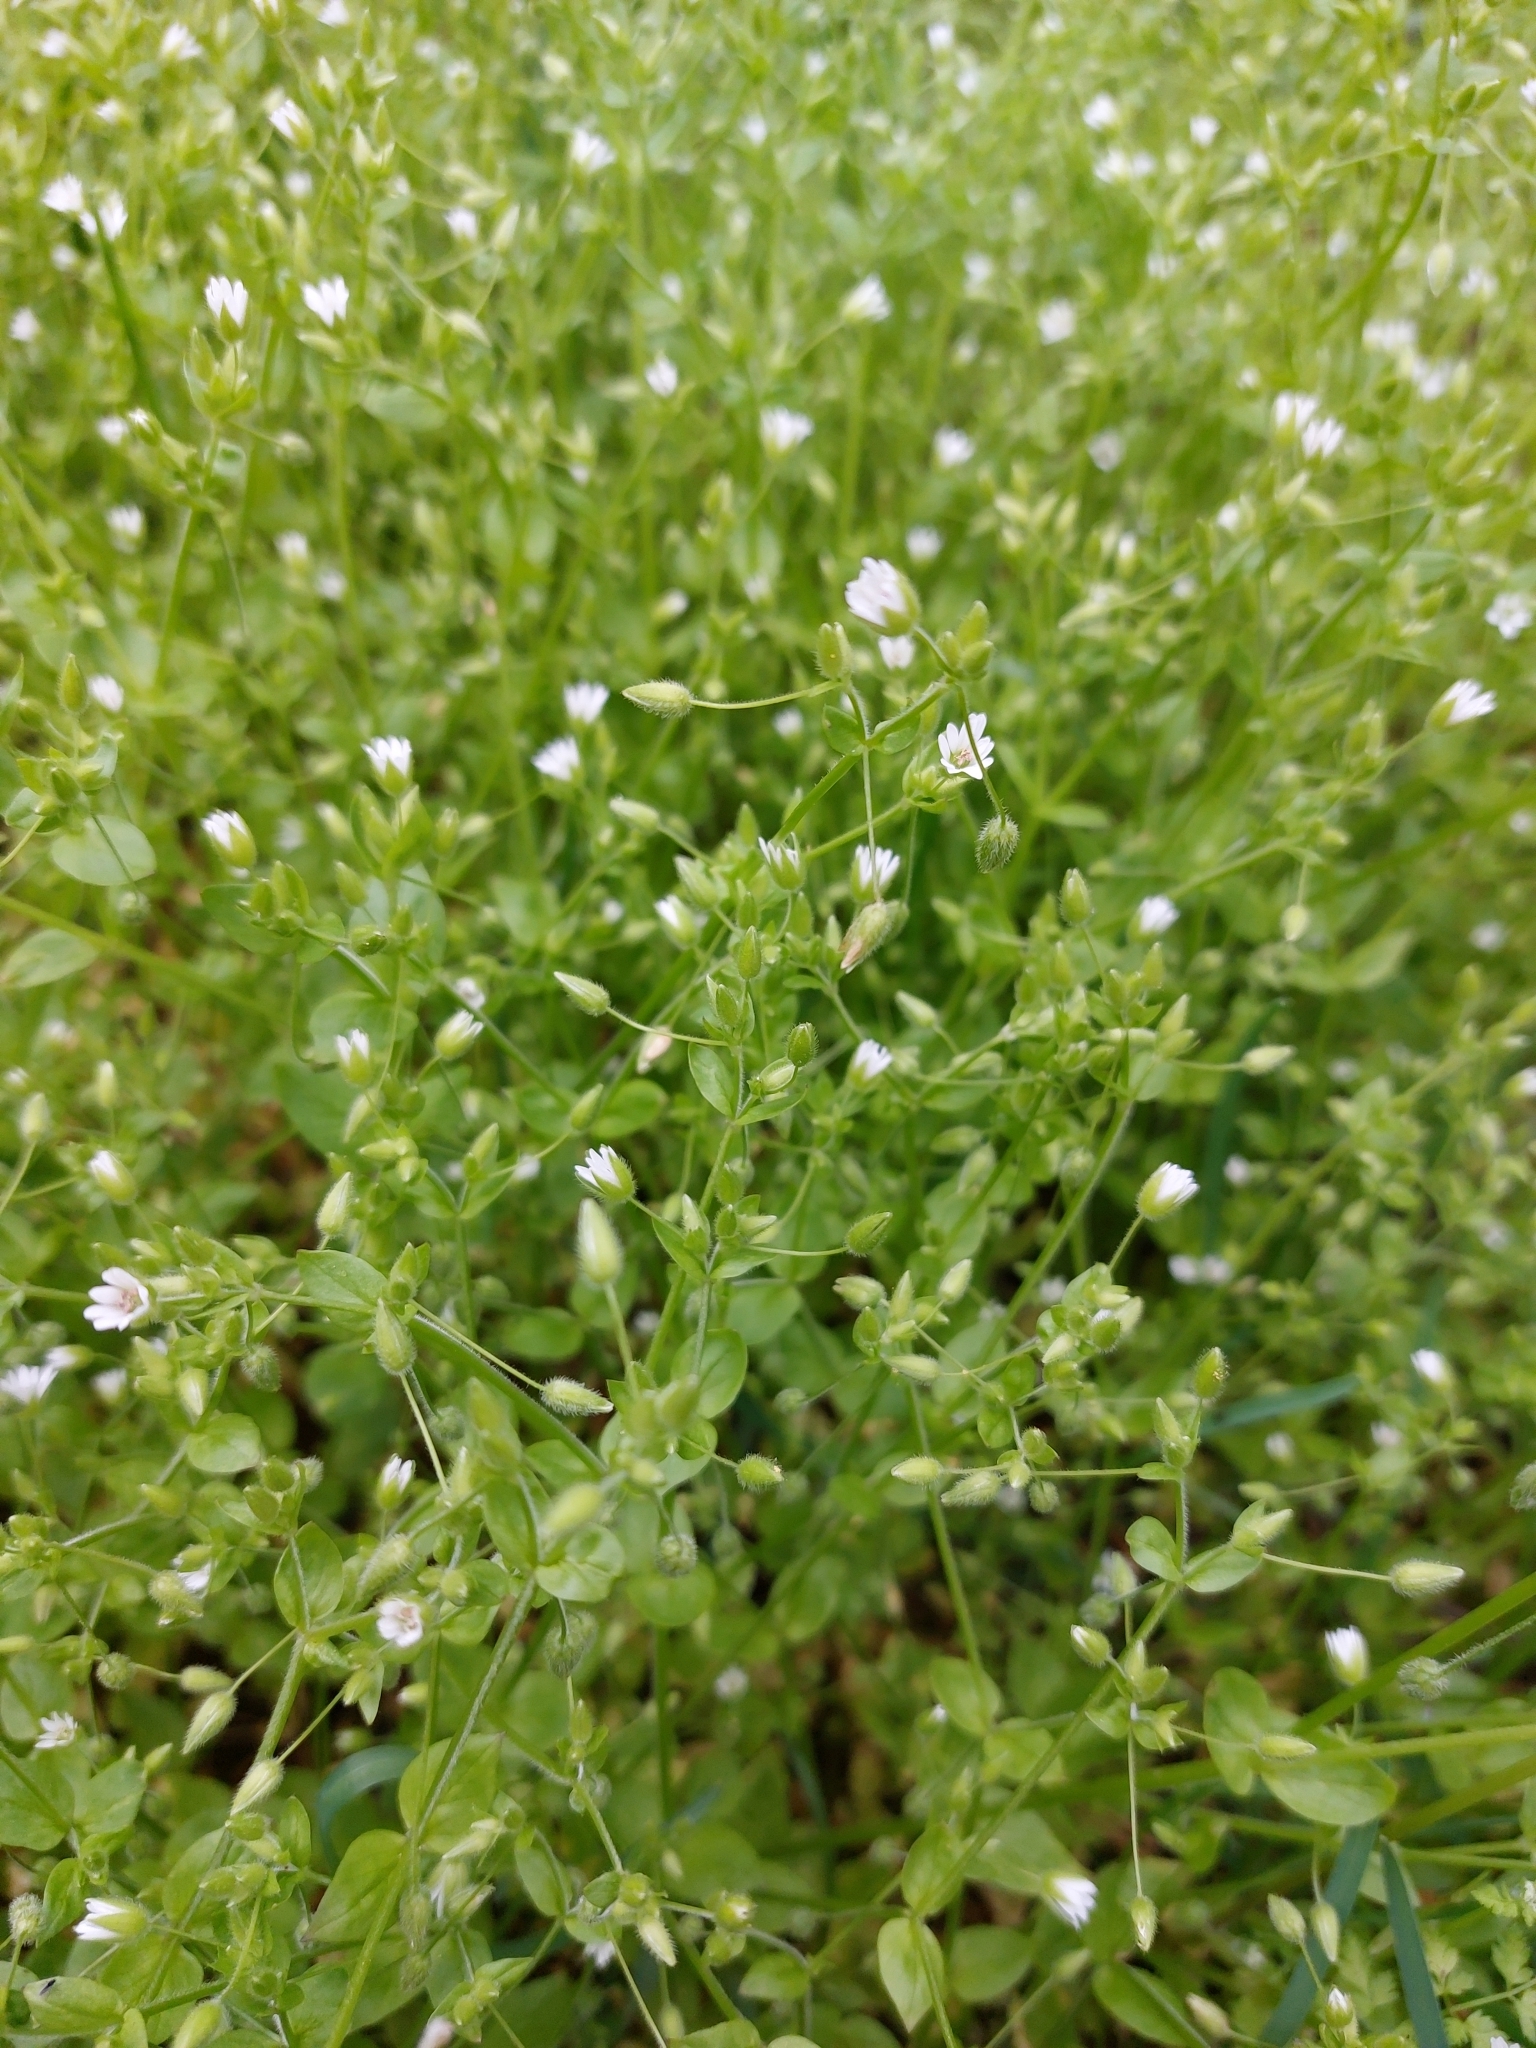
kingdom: Plantae
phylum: Tracheophyta
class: Magnoliopsida
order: Caryophyllales
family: Caryophyllaceae
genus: Stellaria
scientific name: Stellaria media
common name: Common chickweed
